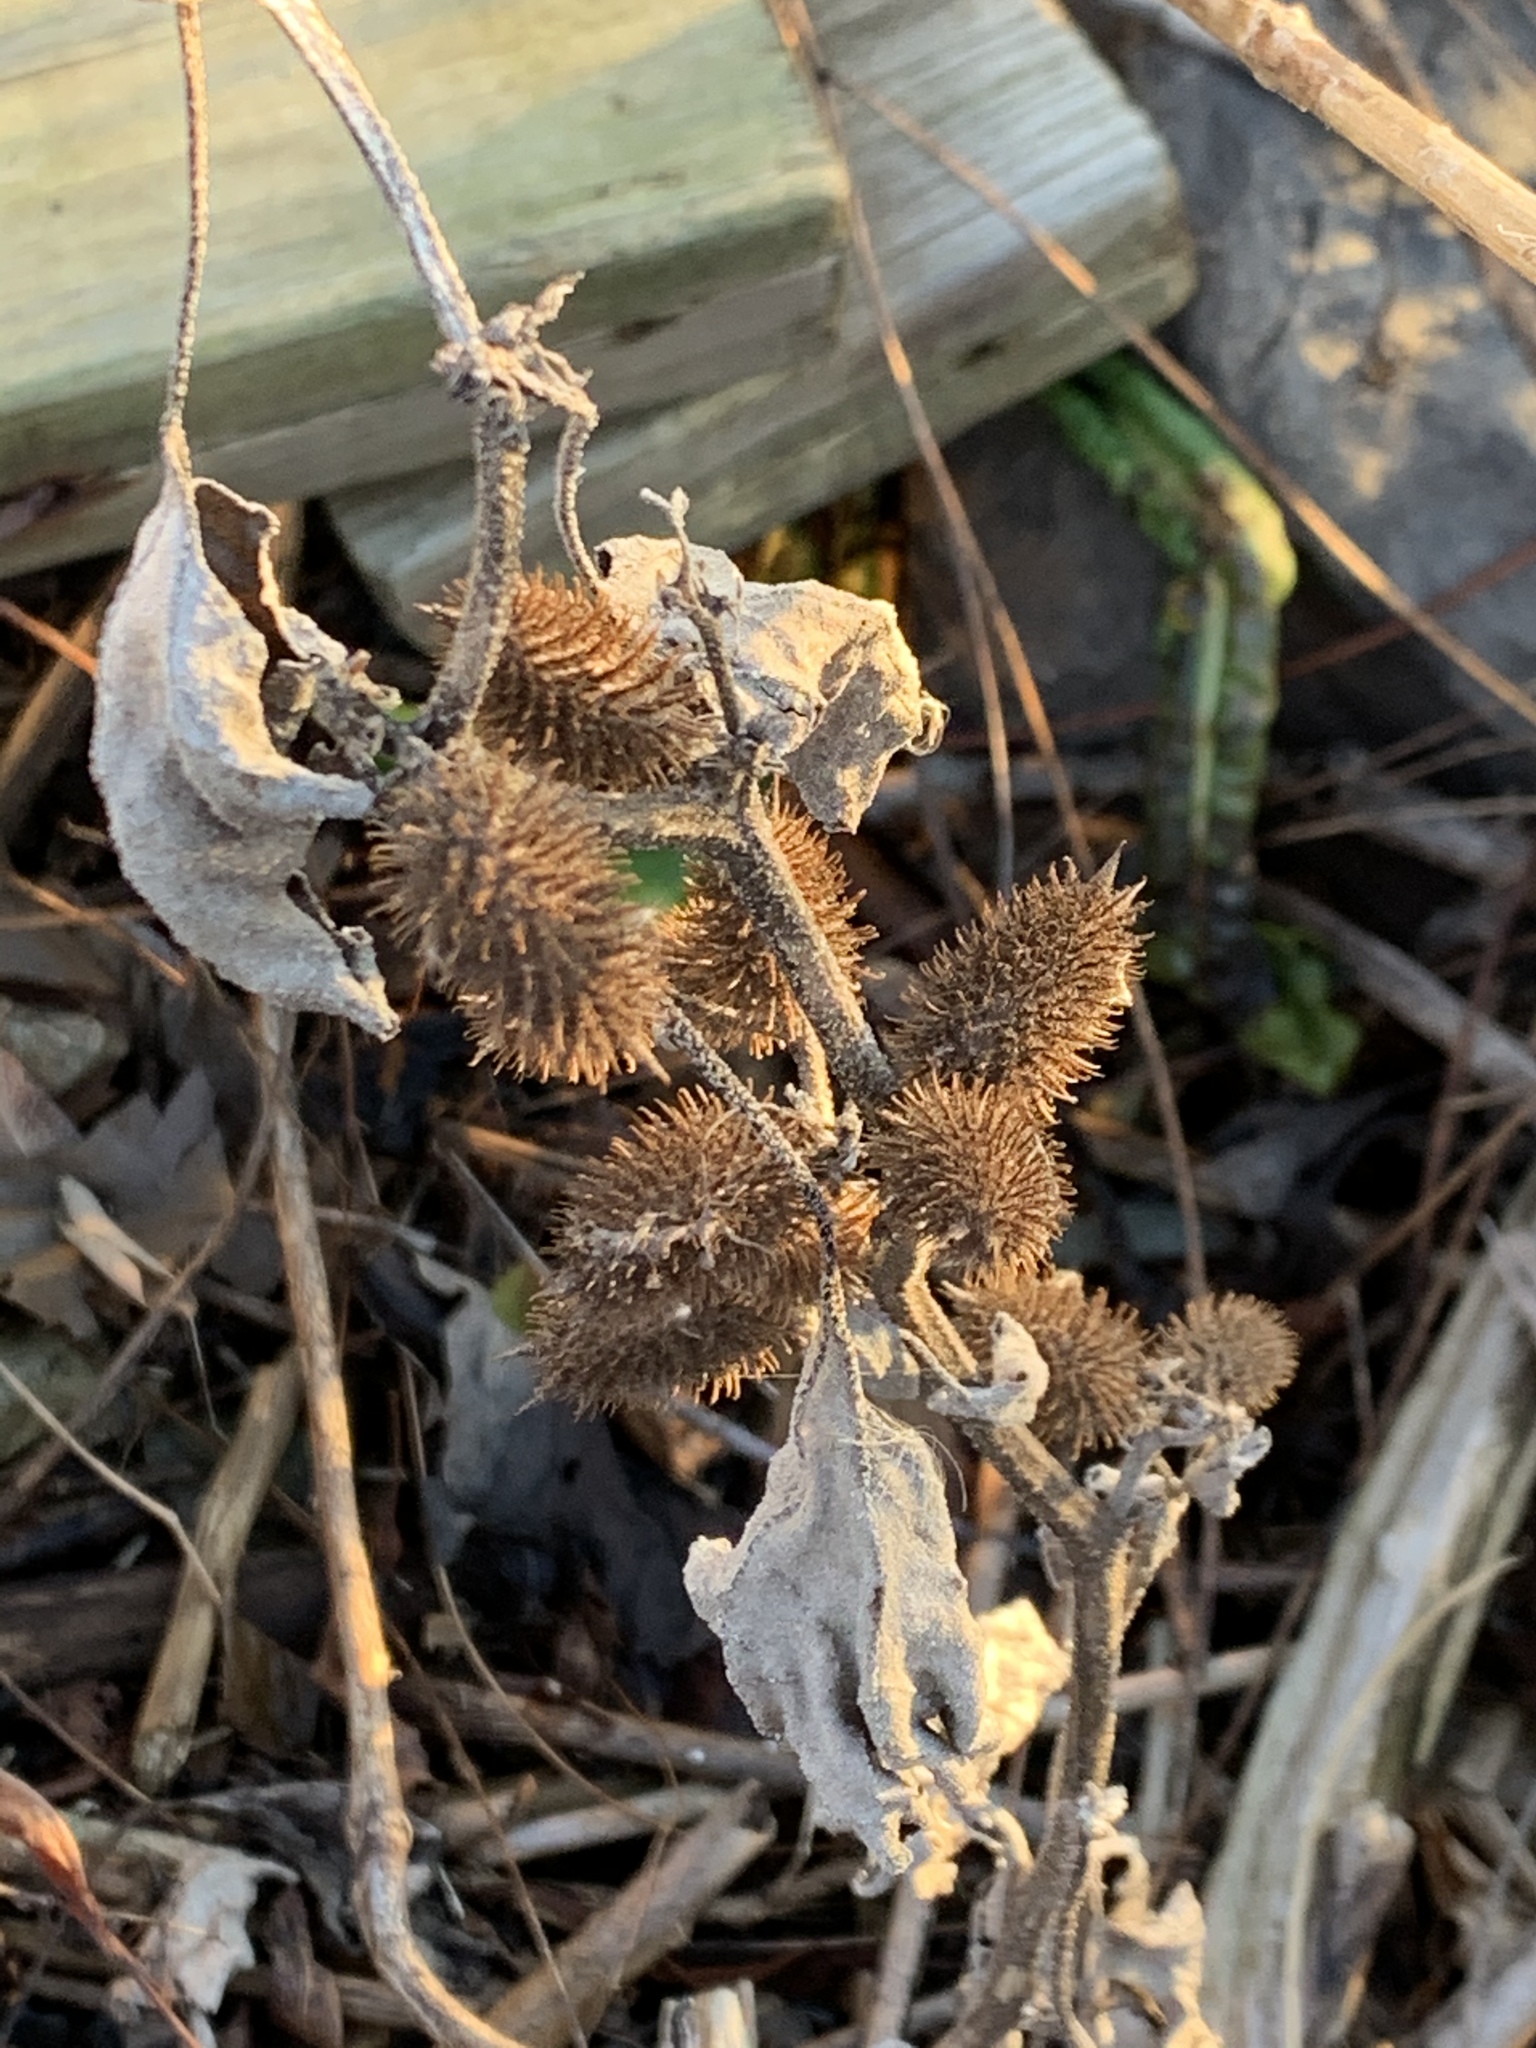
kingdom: Plantae
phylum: Tracheophyta
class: Magnoliopsida
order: Asterales
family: Asteraceae
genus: Xanthium
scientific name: Xanthium strumarium
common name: Rough cocklebur
